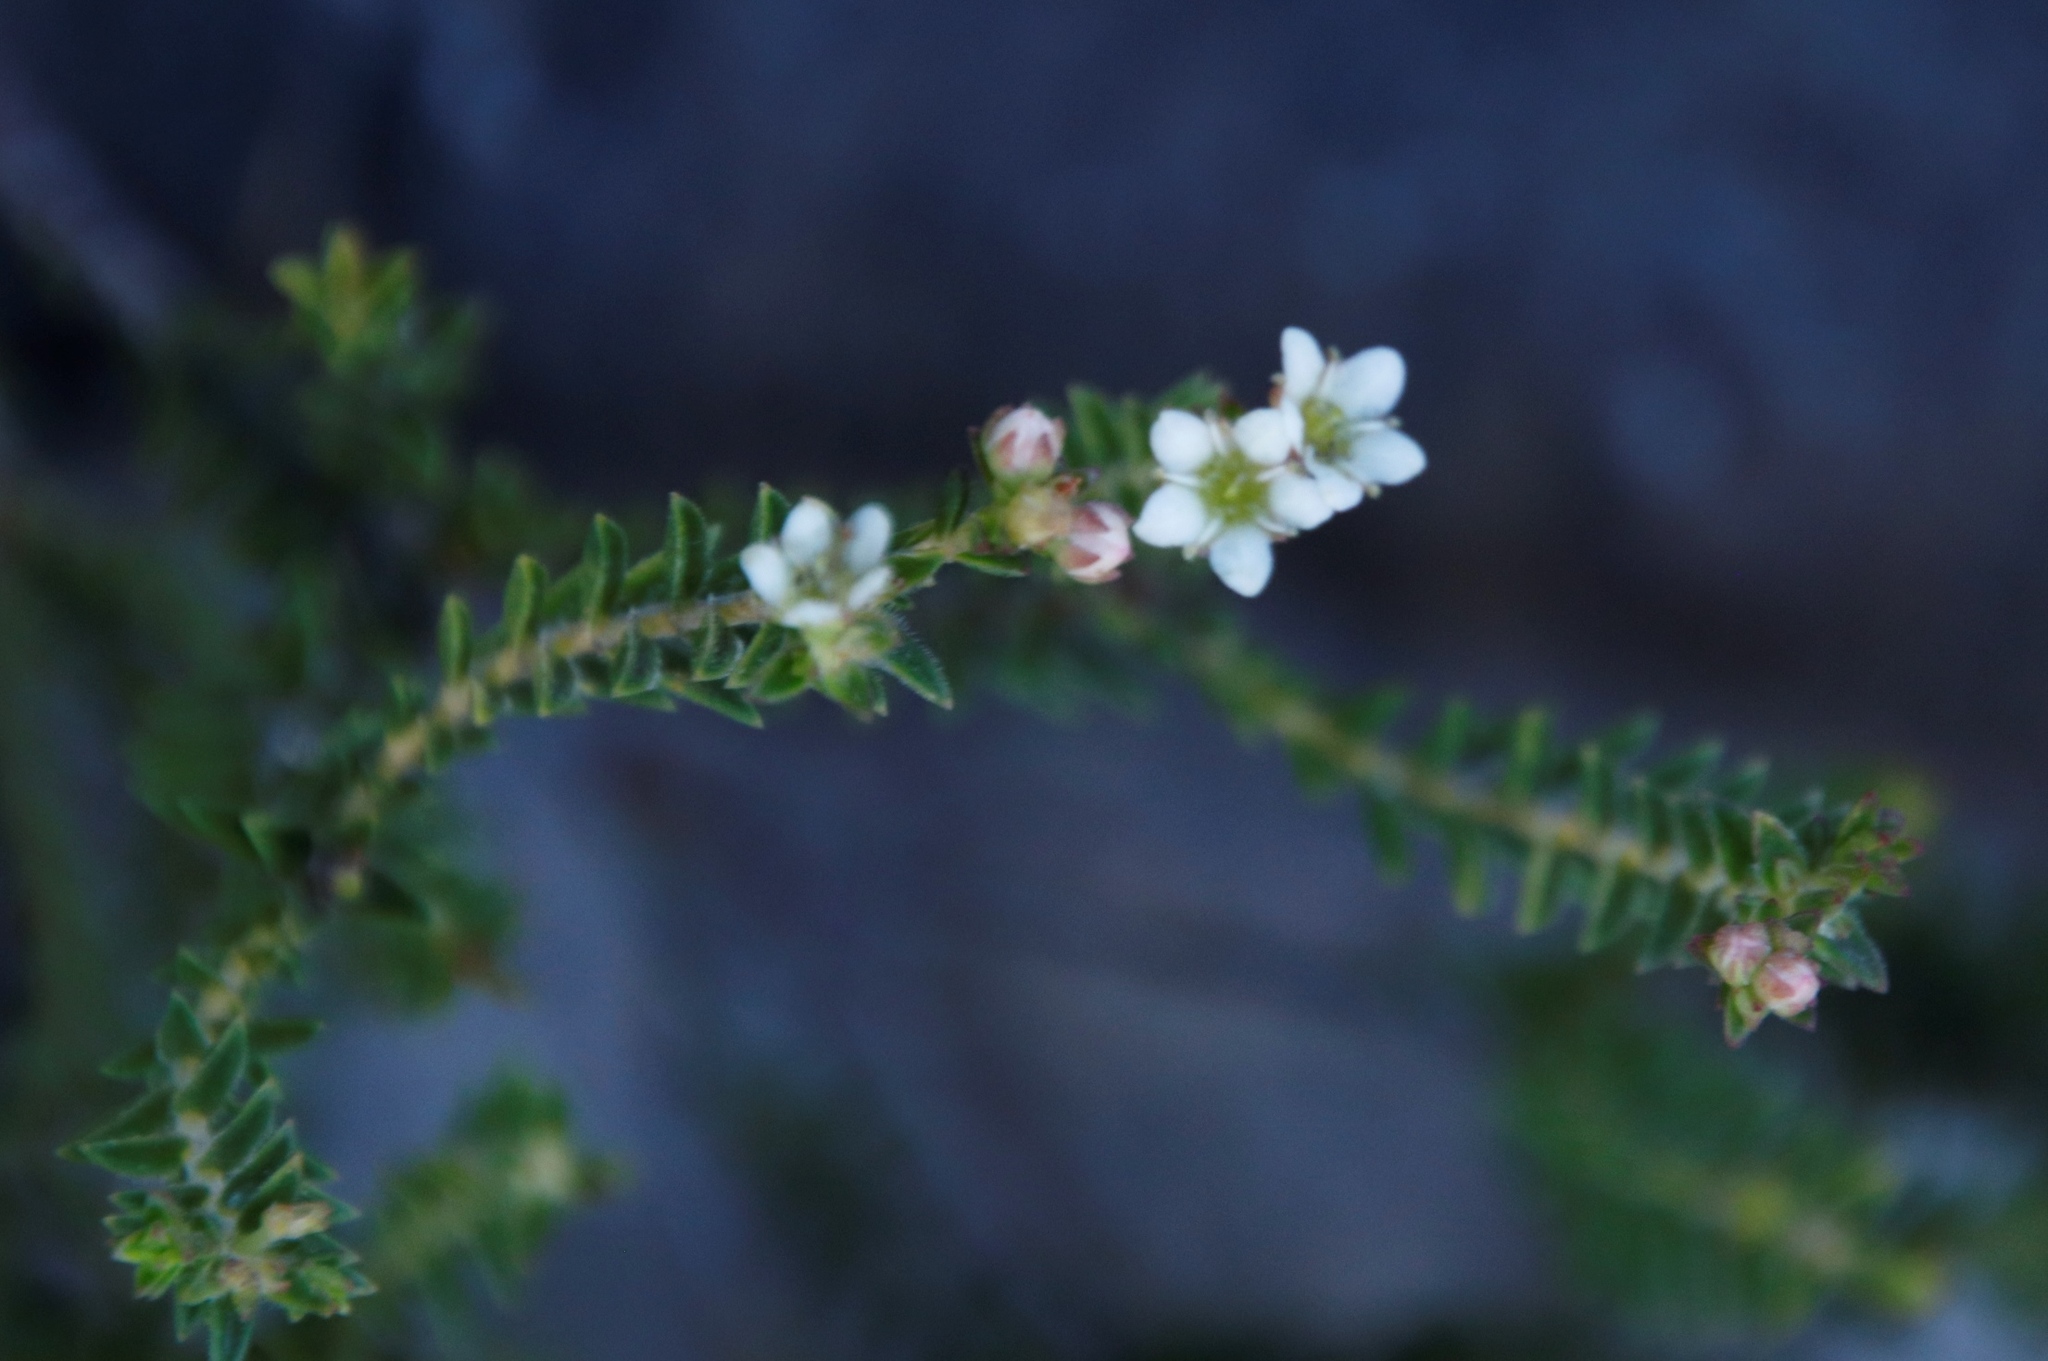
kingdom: Plantae
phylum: Tracheophyta
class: Magnoliopsida
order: Sapindales
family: Rutaceae
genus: Diosma
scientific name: Diosma oppositifolia
